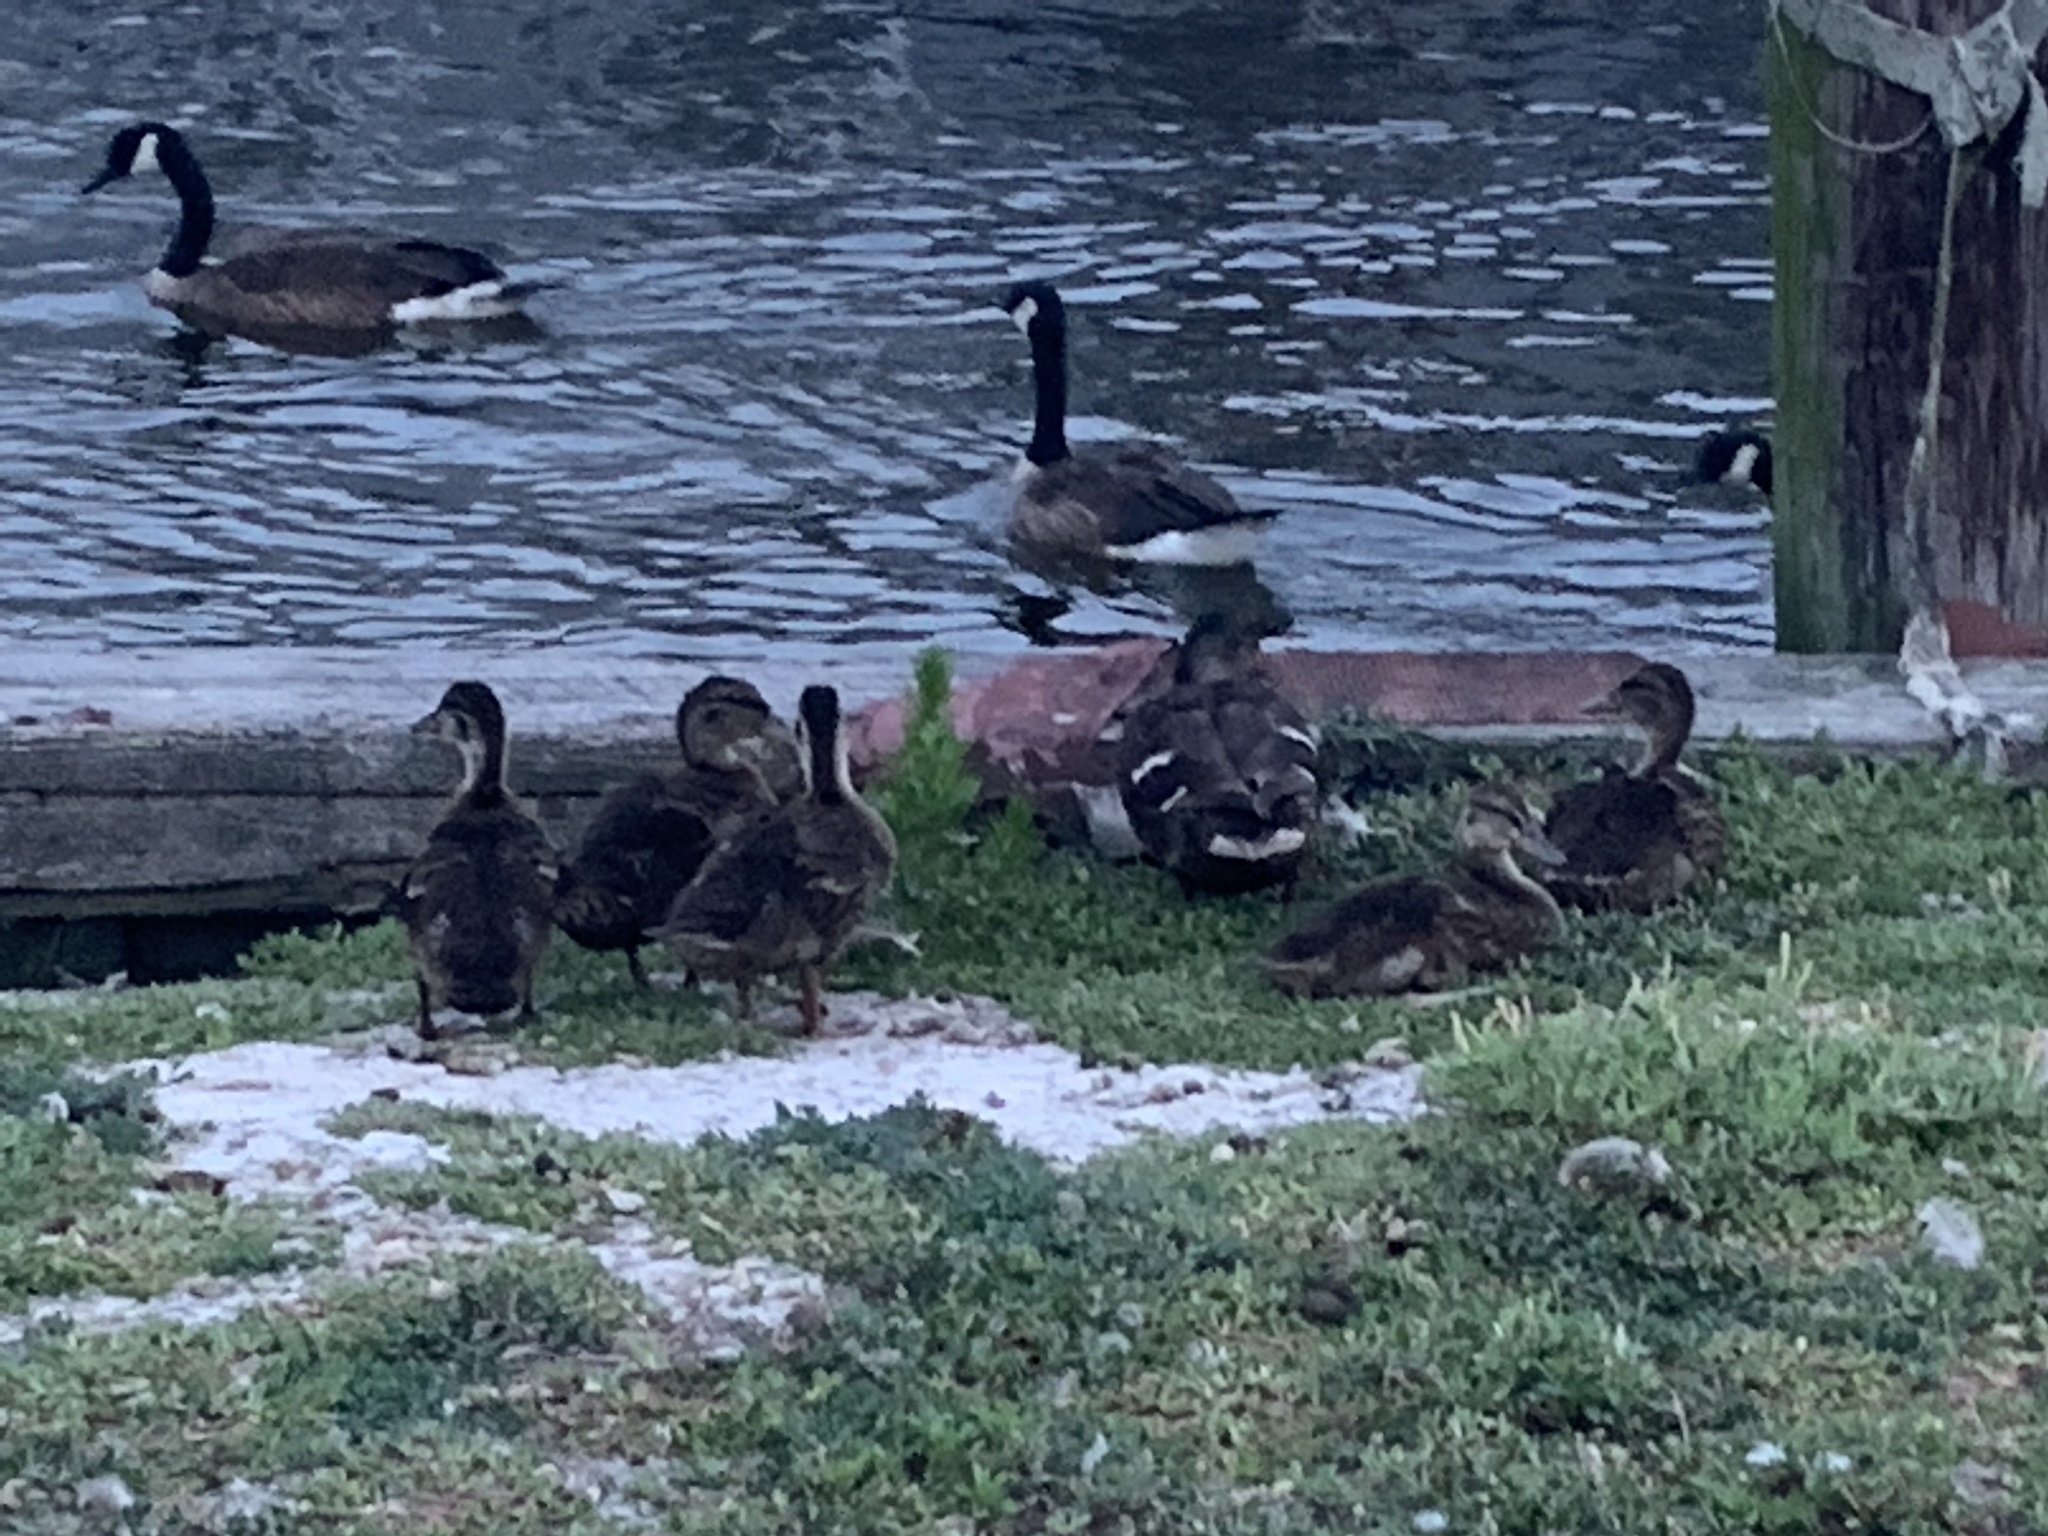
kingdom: Animalia
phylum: Chordata
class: Aves
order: Anseriformes
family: Anatidae
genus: Anas
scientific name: Anas platyrhynchos
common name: Mallard
